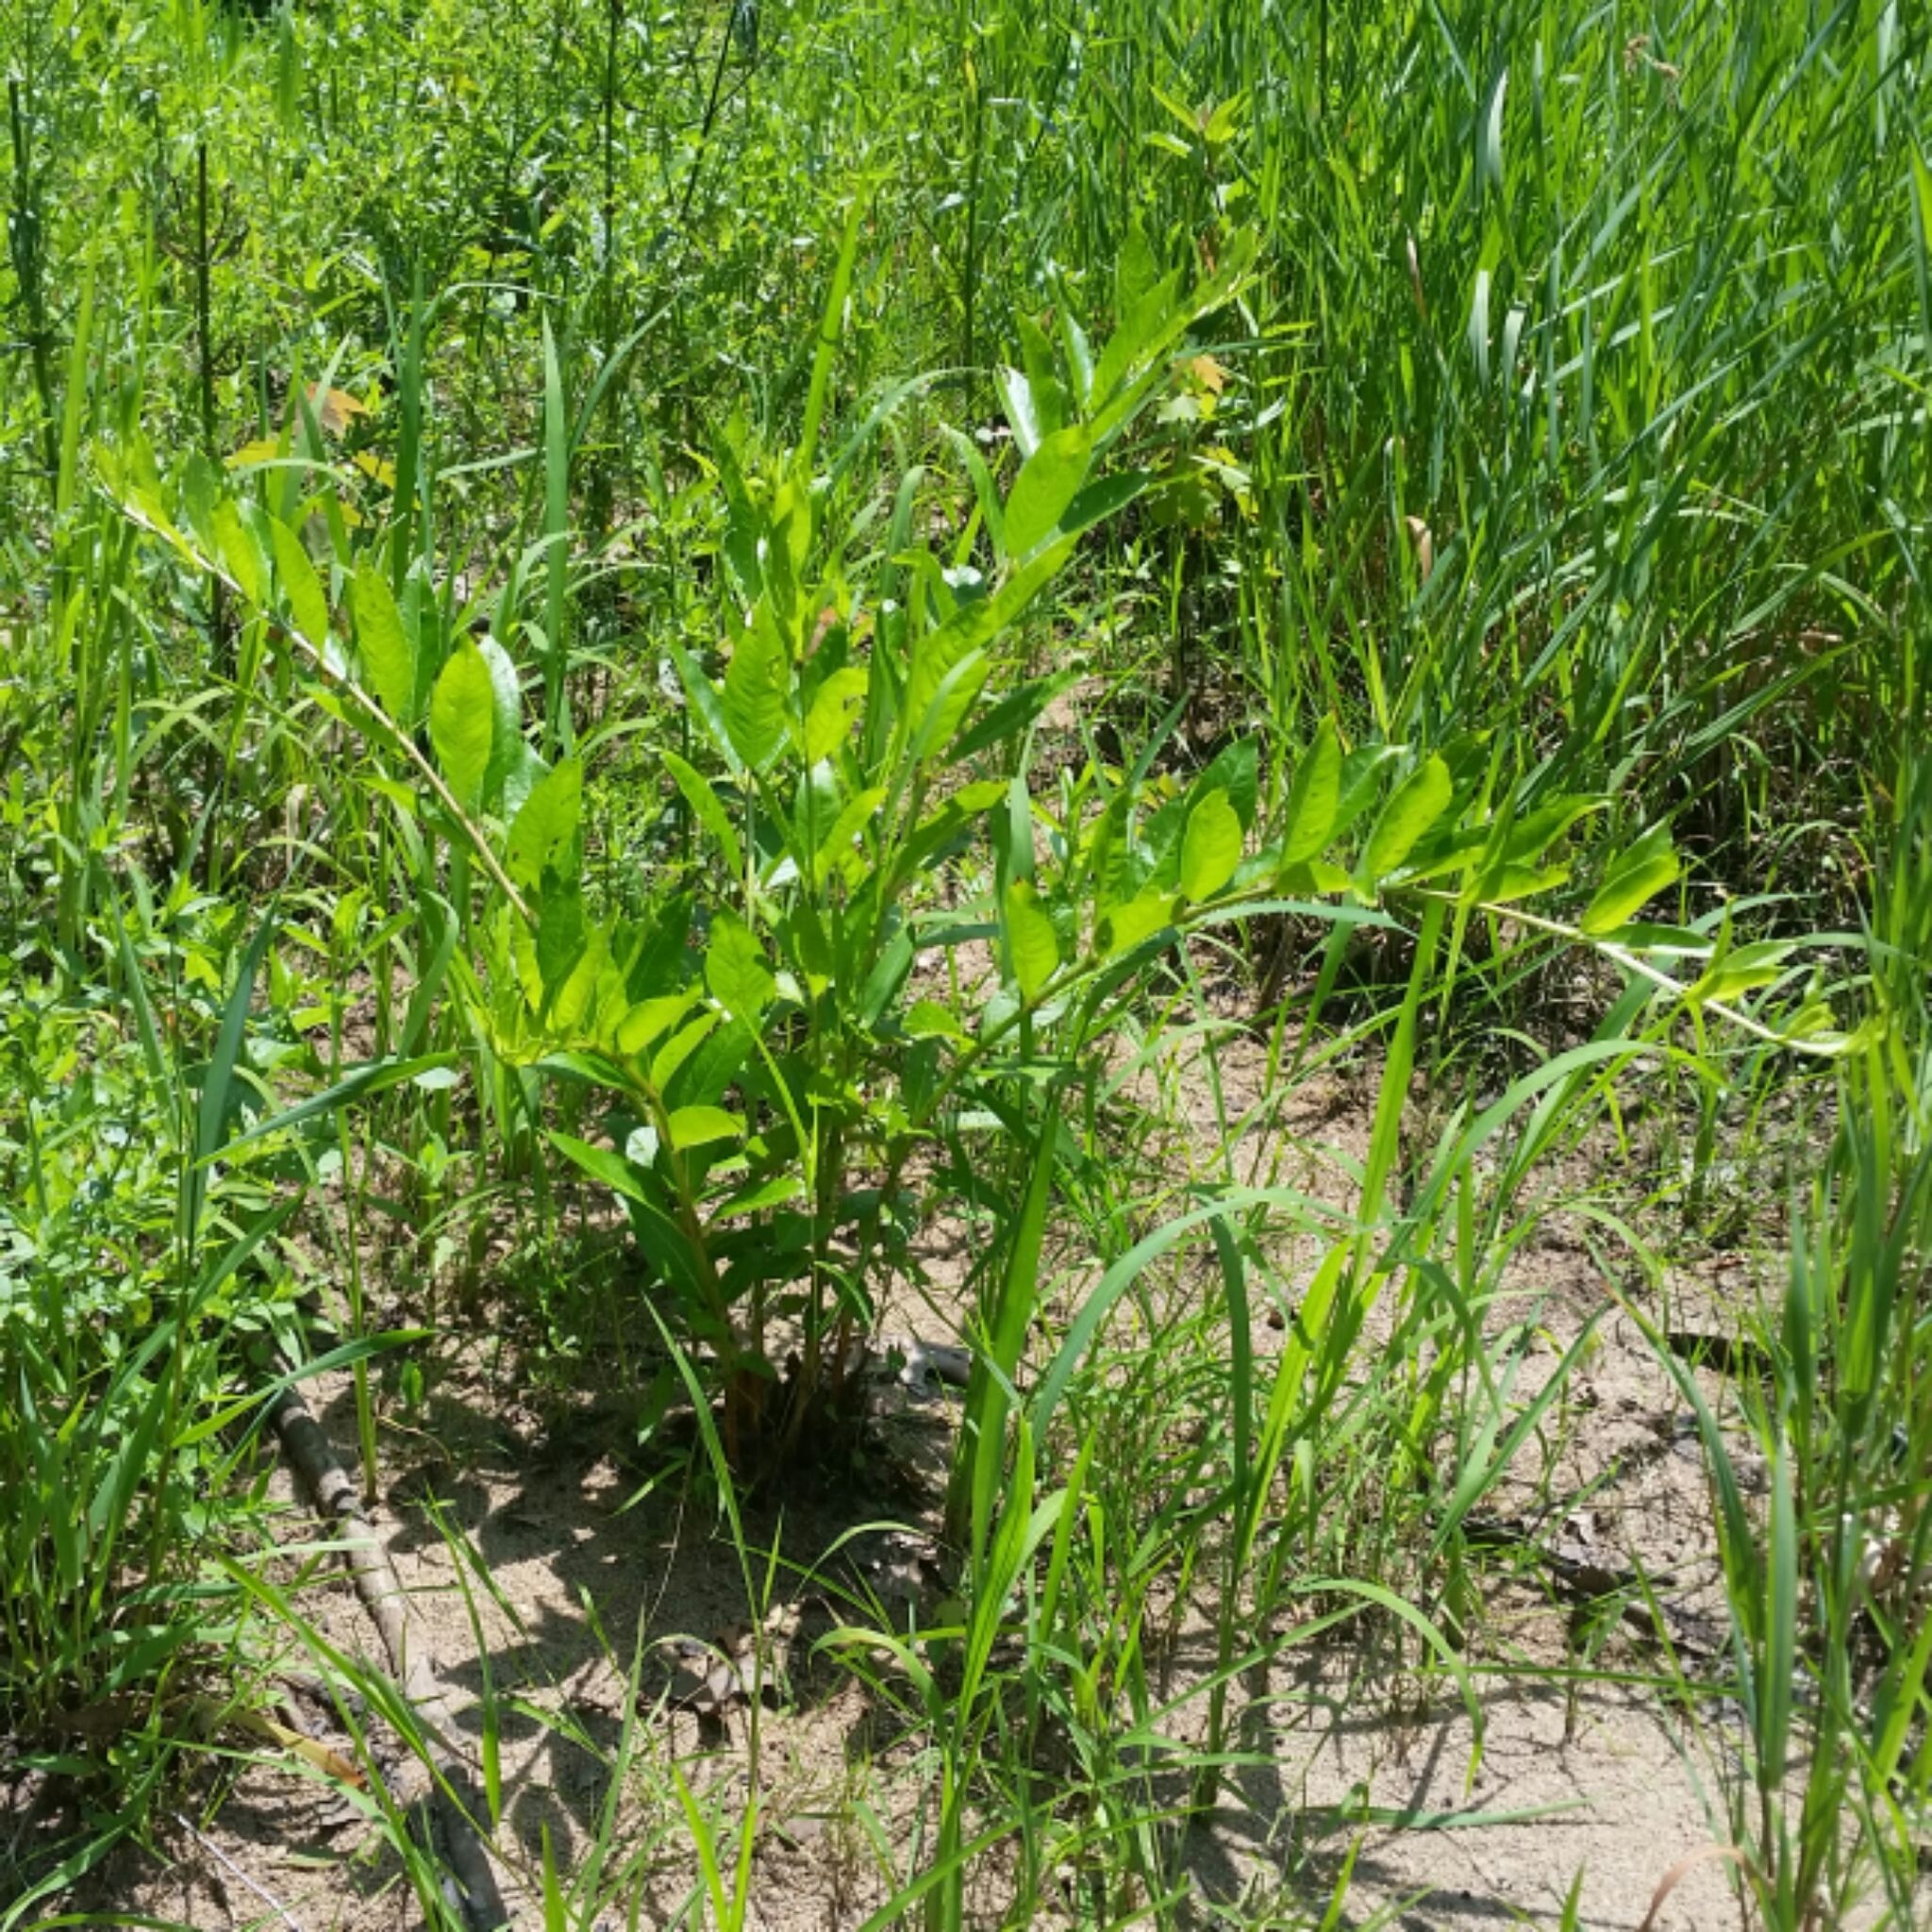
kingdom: Plantae
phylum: Tracheophyta
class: Magnoliopsida
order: Myrtales
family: Lythraceae
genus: Decodon
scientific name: Decodon verticillatus
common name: Hairy swamp loosestrife
